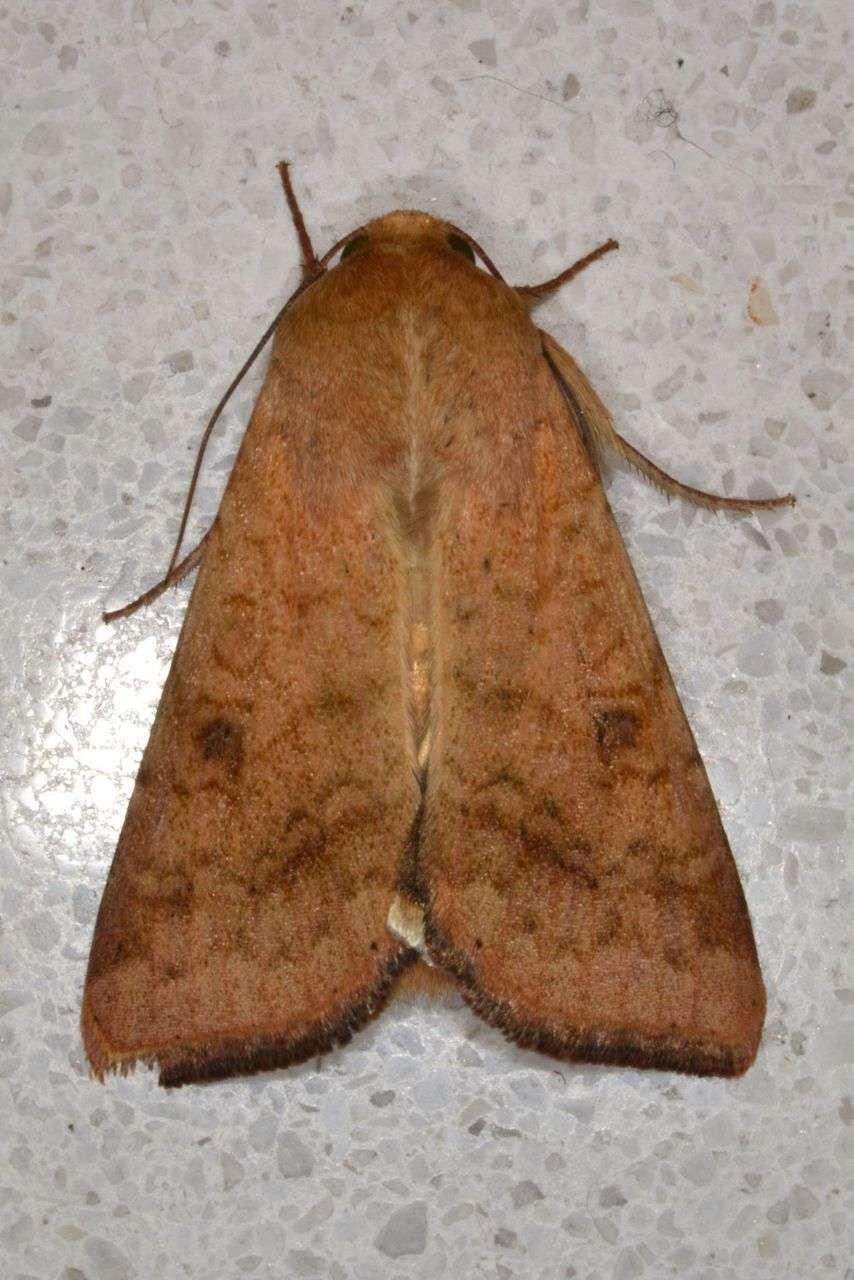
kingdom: Animalia
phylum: Arthropoda
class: Insecta
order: Lepidoptera
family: Noctuidae
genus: Helicoverpa
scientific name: Helicoverpa armigera
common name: Cotton bollworm
